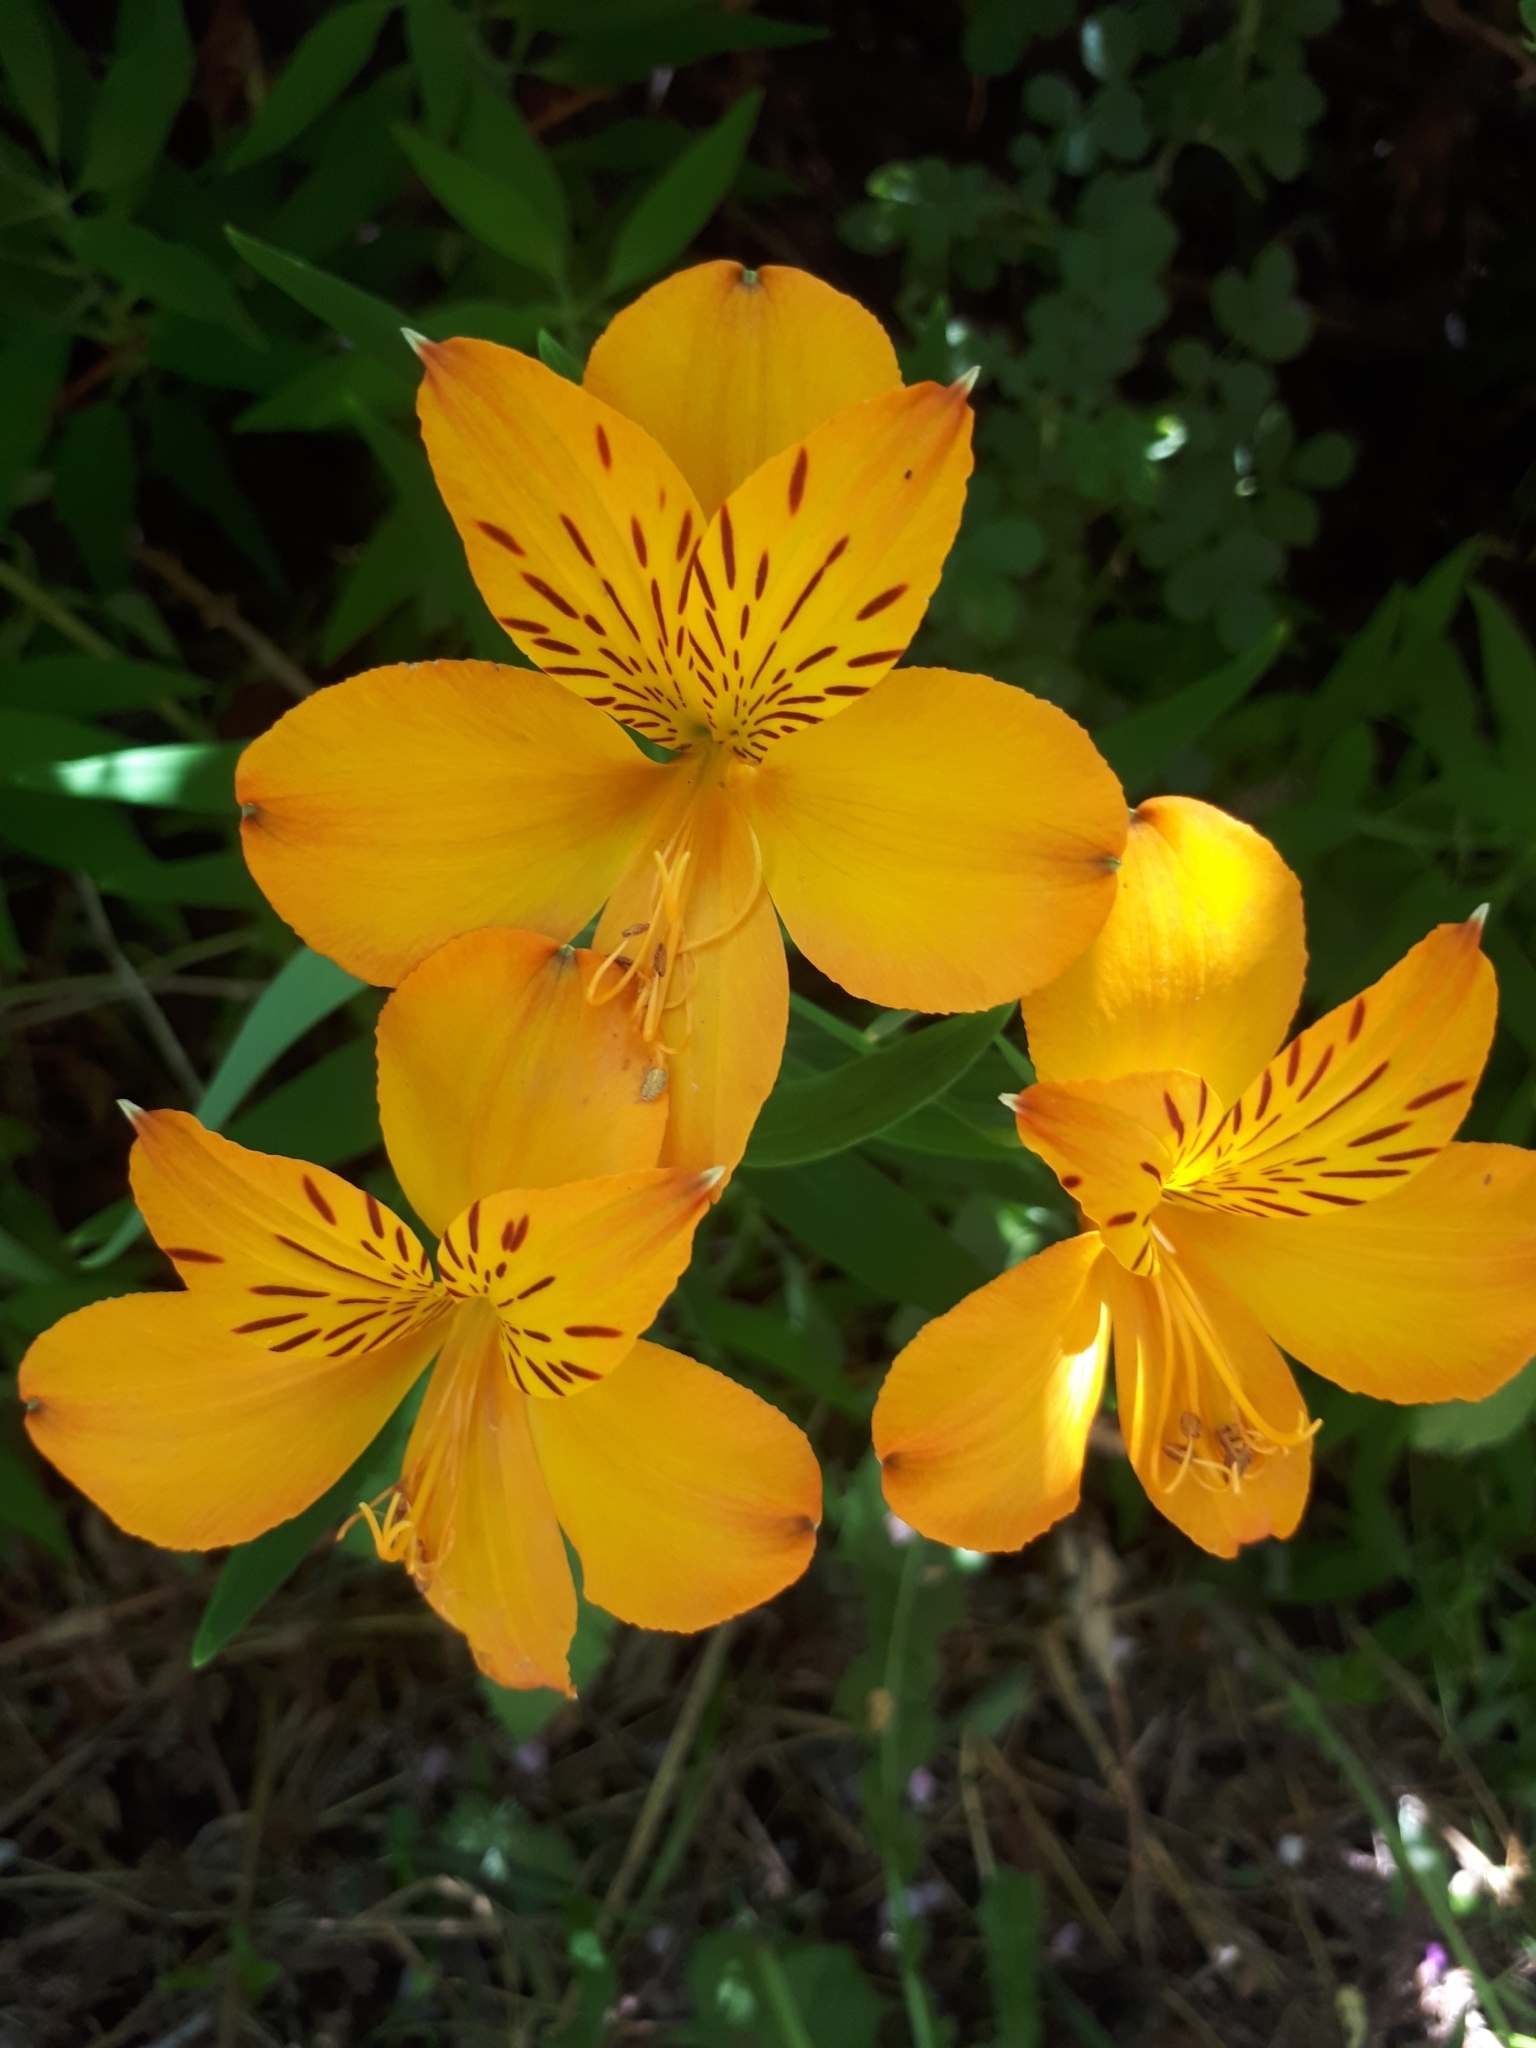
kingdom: Plantae
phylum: Tracheophyta
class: Liliopsida
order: Liliales
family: Alstroemeriaceae
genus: Alstroemeria
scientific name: Alstroemeria aurea
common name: Peruvian lily
